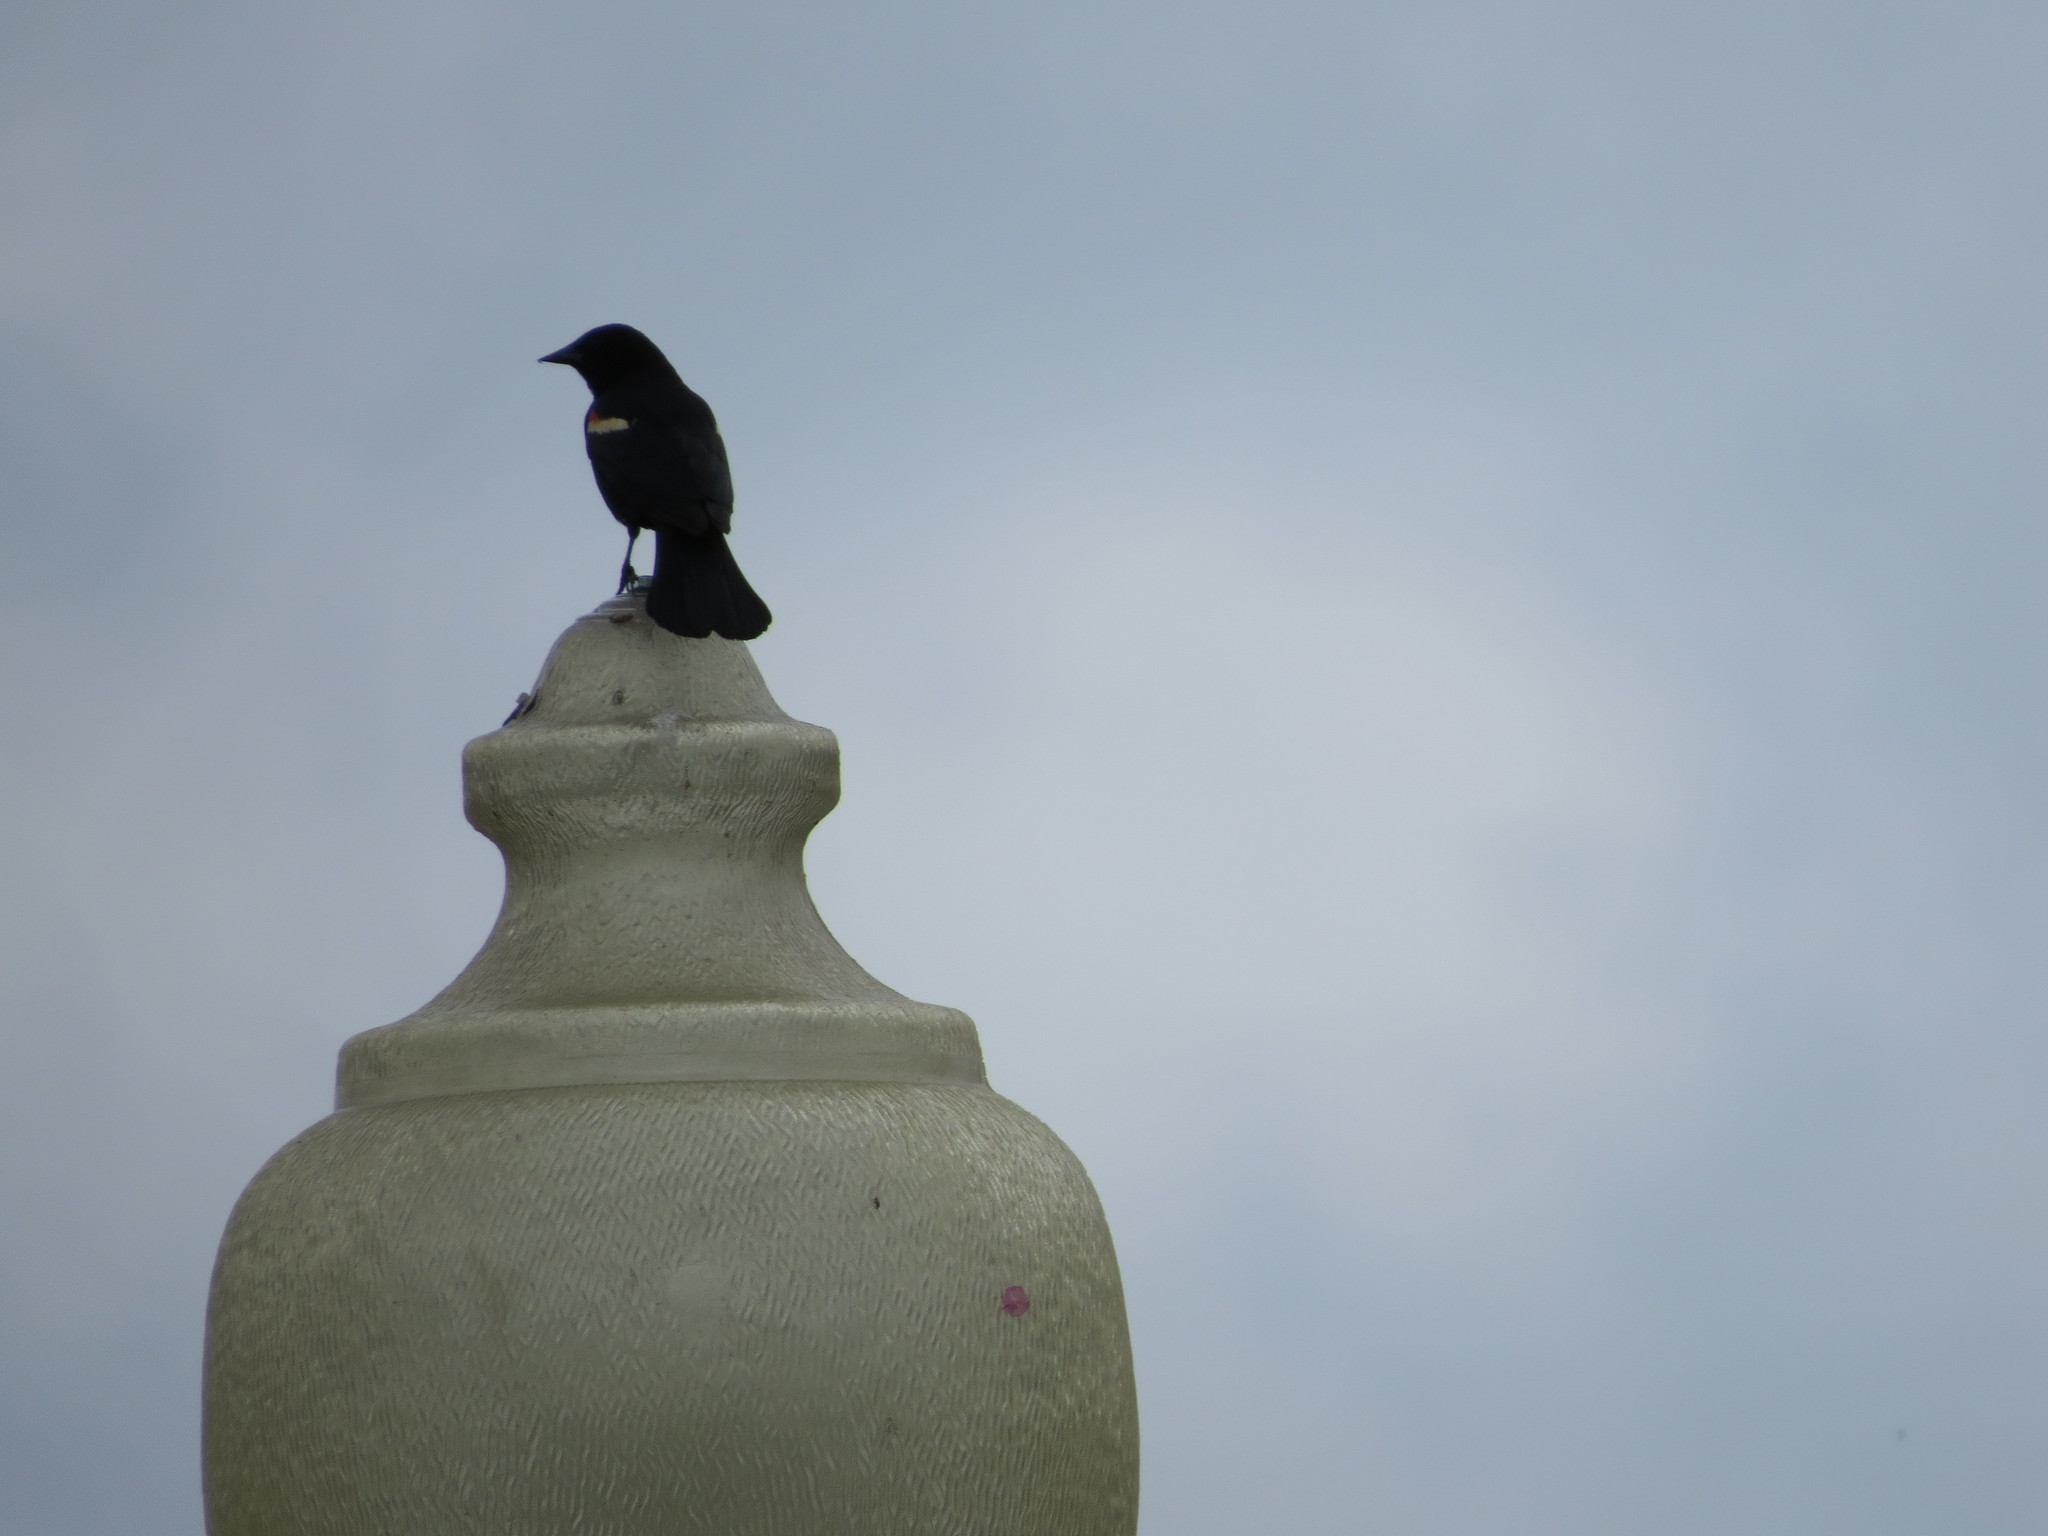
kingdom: Animalia
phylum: Chordata
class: Aves
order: Passeriformes
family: Icteridae
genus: Agelaius
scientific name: Agelaius phoeniceus
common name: Red-winged blackbird
